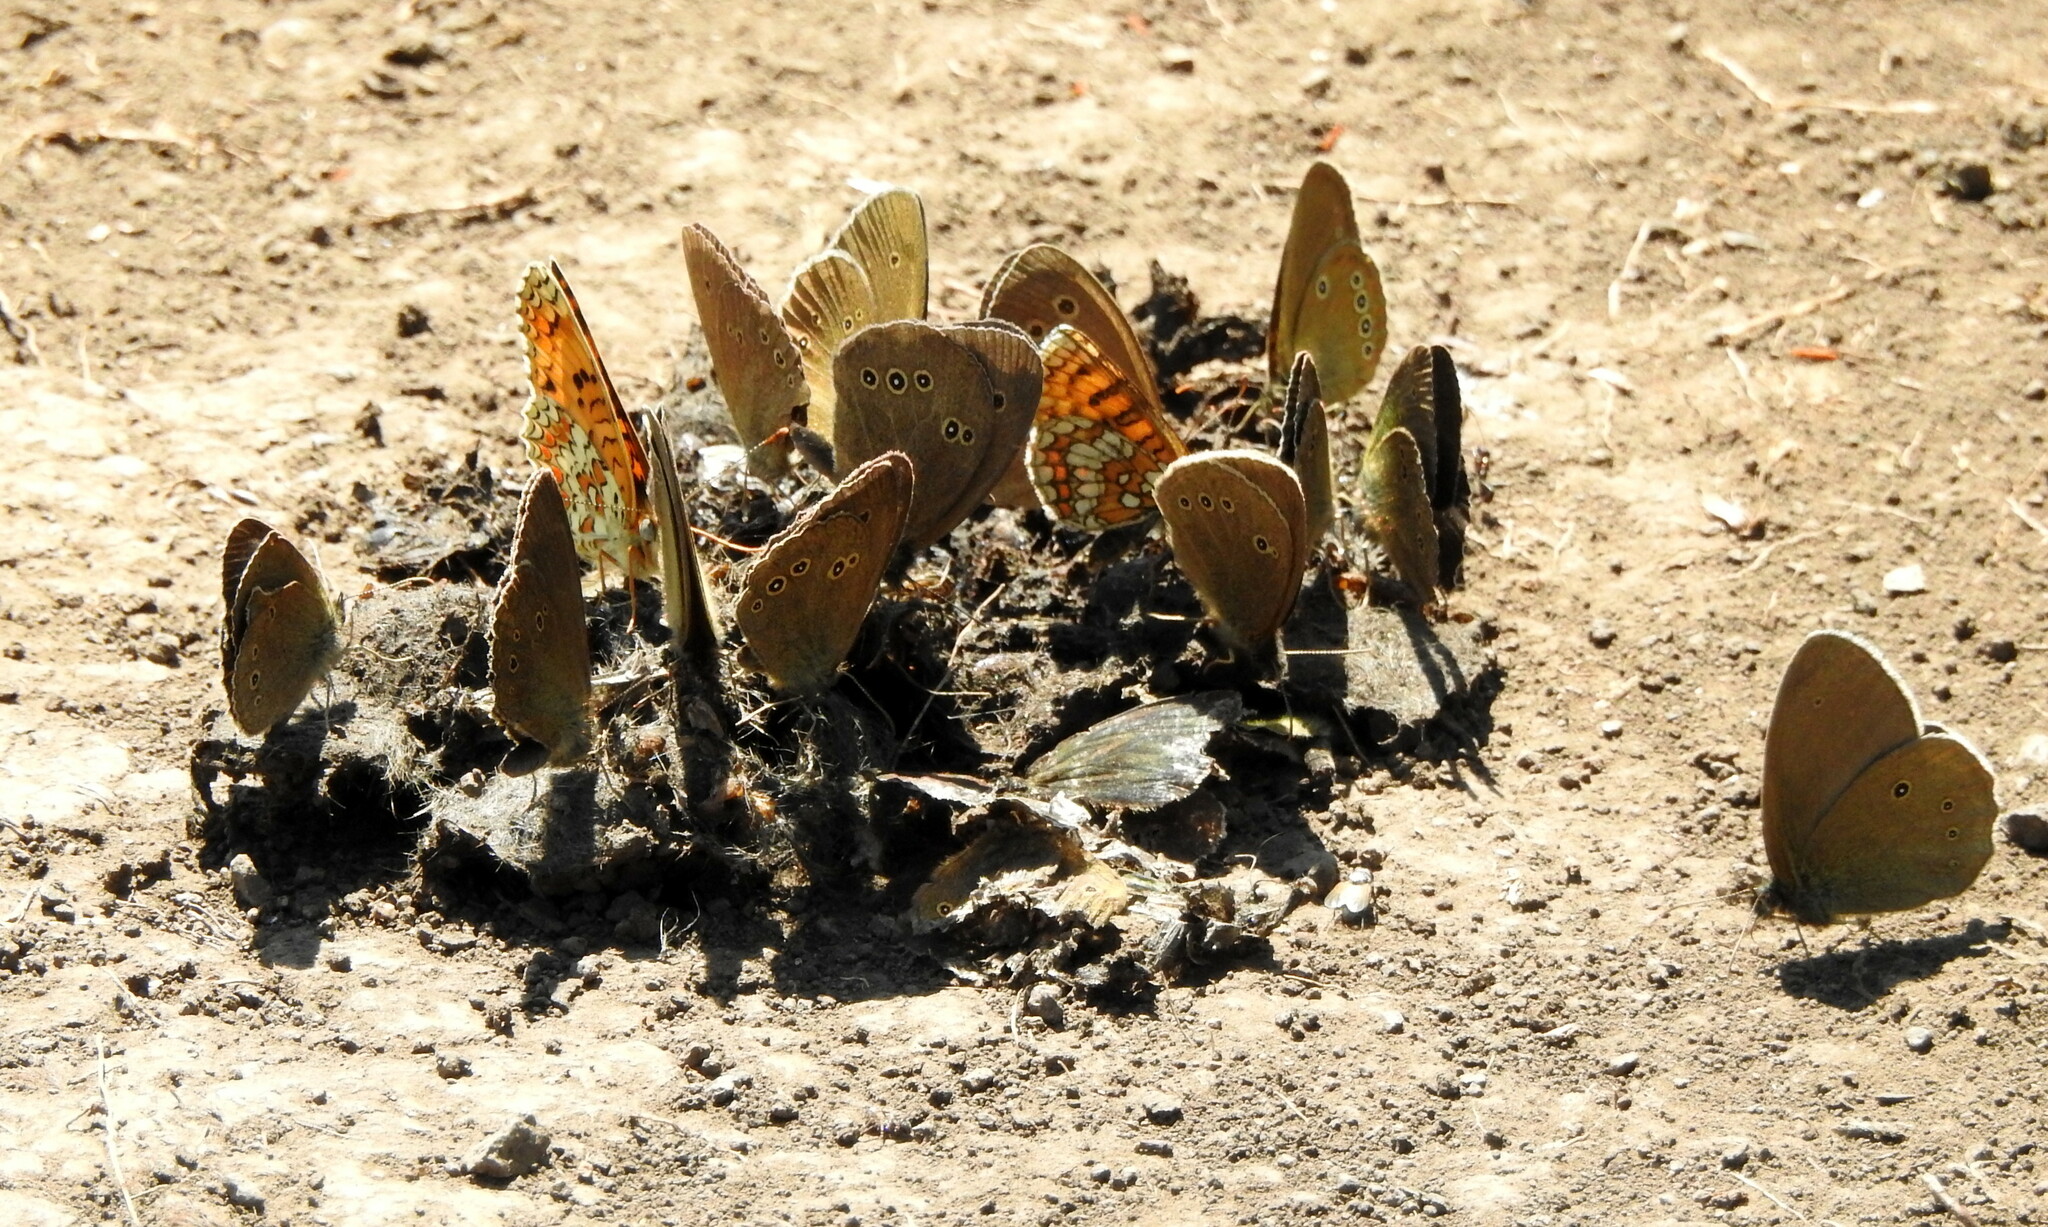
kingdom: Animalia
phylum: Arthropoda
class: Insecta
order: Lepidoptera
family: Nymphalidae
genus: Aphantopus
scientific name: Aphantopus hyperantus
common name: Ringlet
